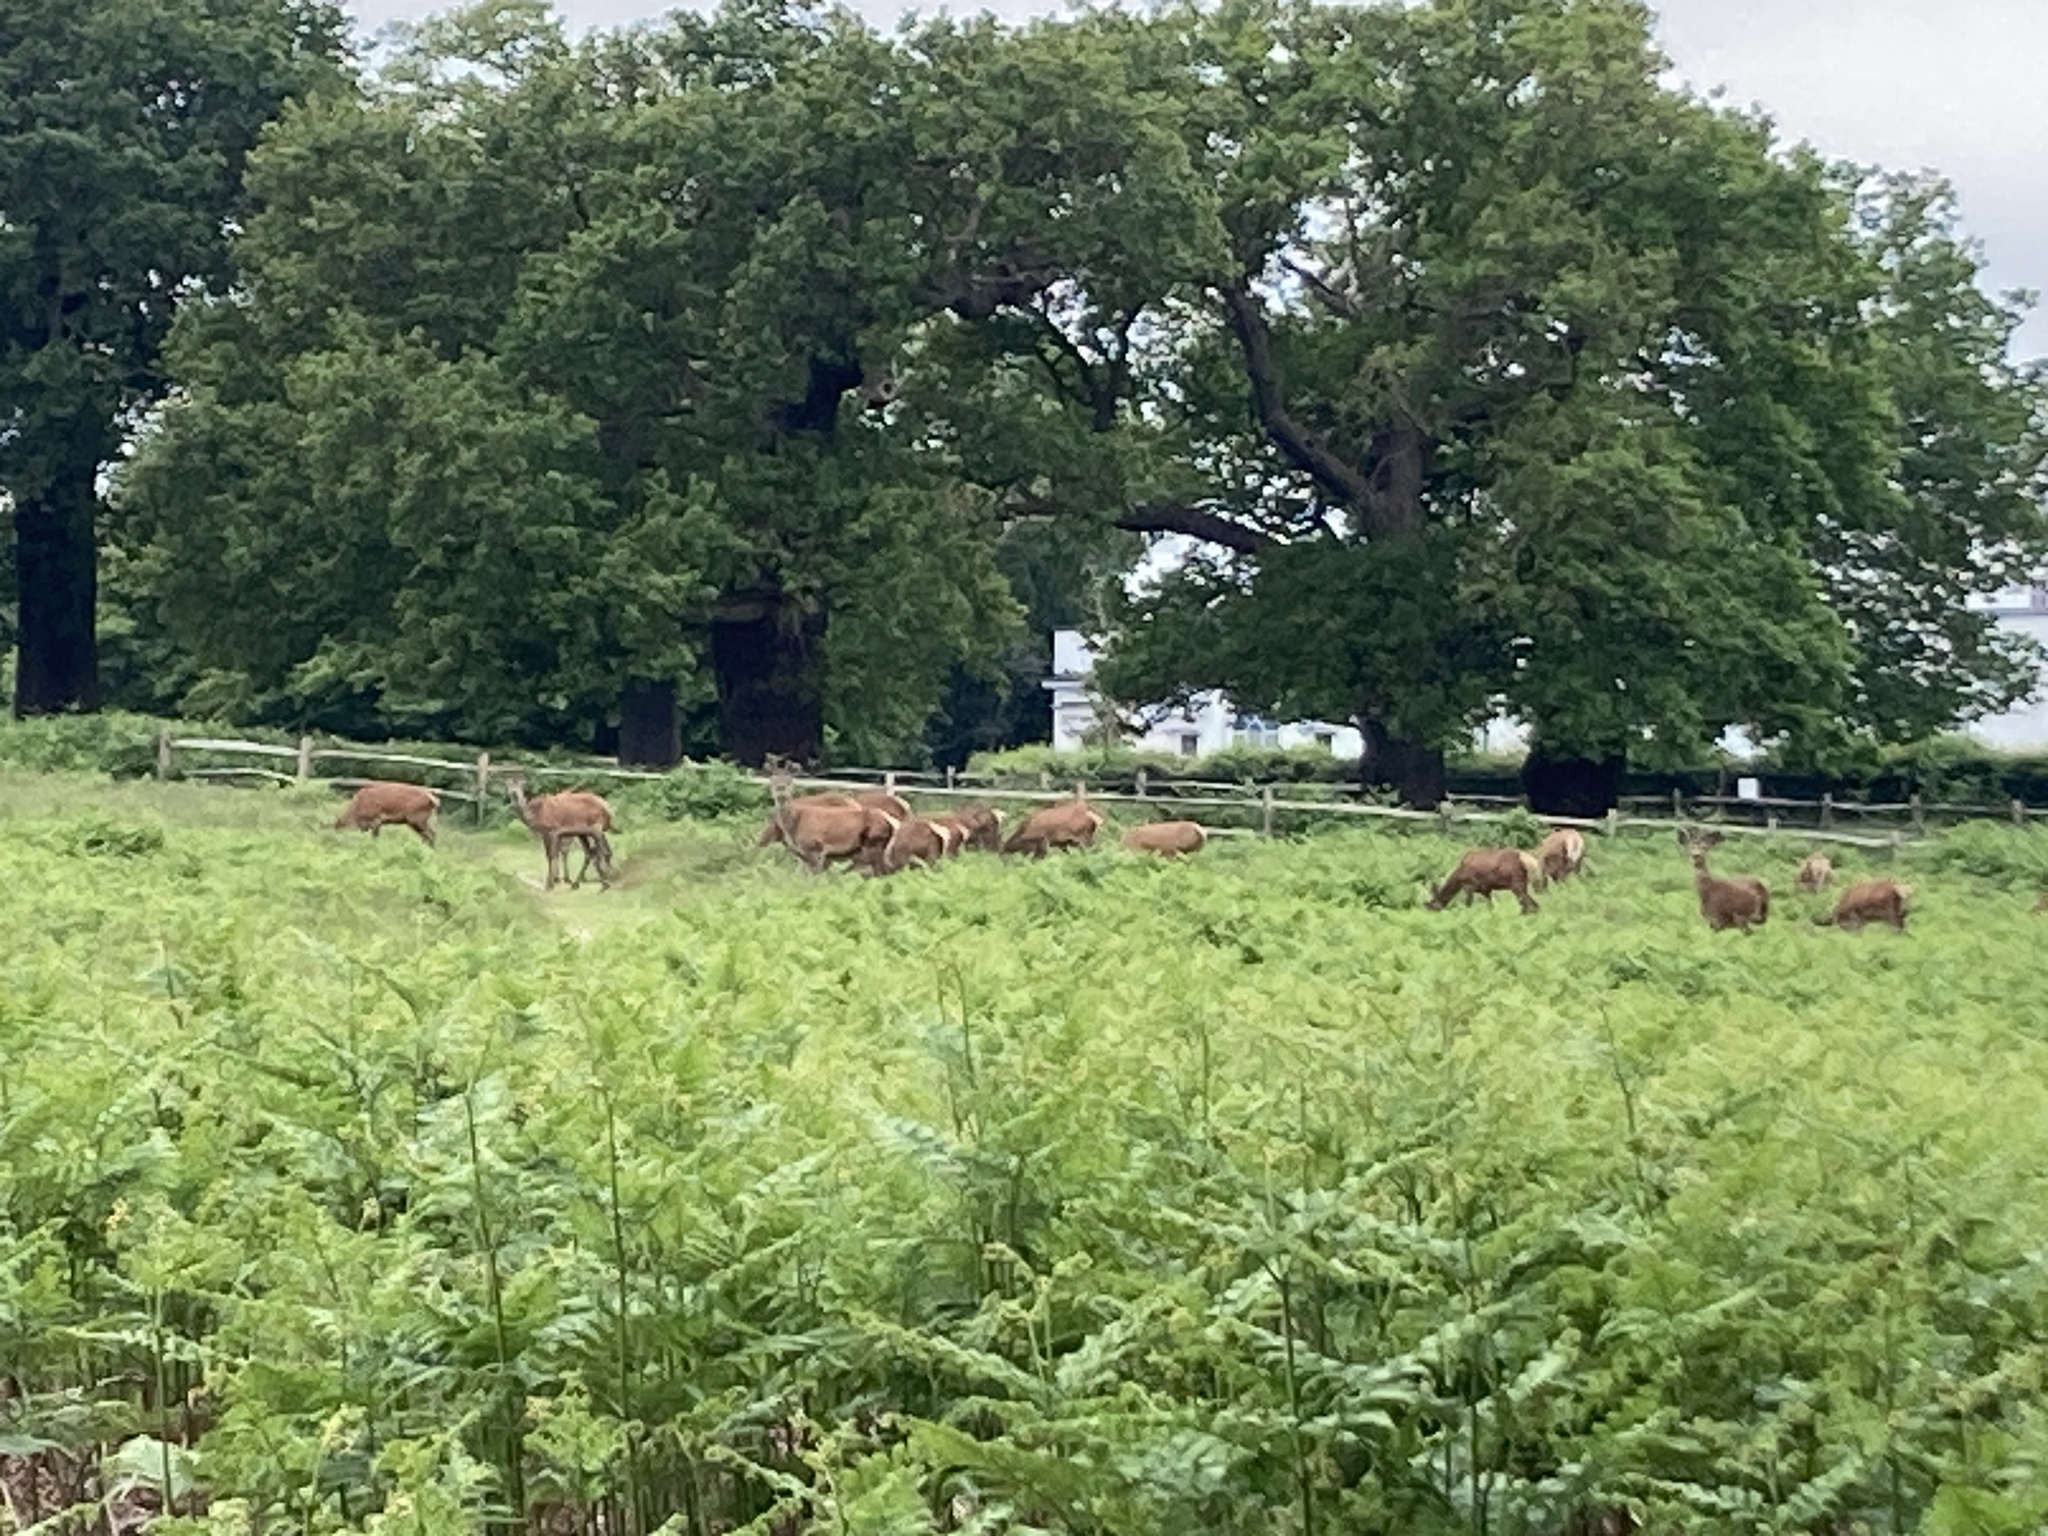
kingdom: Animalia
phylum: Chordata
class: Mammalia
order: Artiodactyla
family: Cervidae
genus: Cervus
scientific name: Cervus elaphus
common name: Red deer
